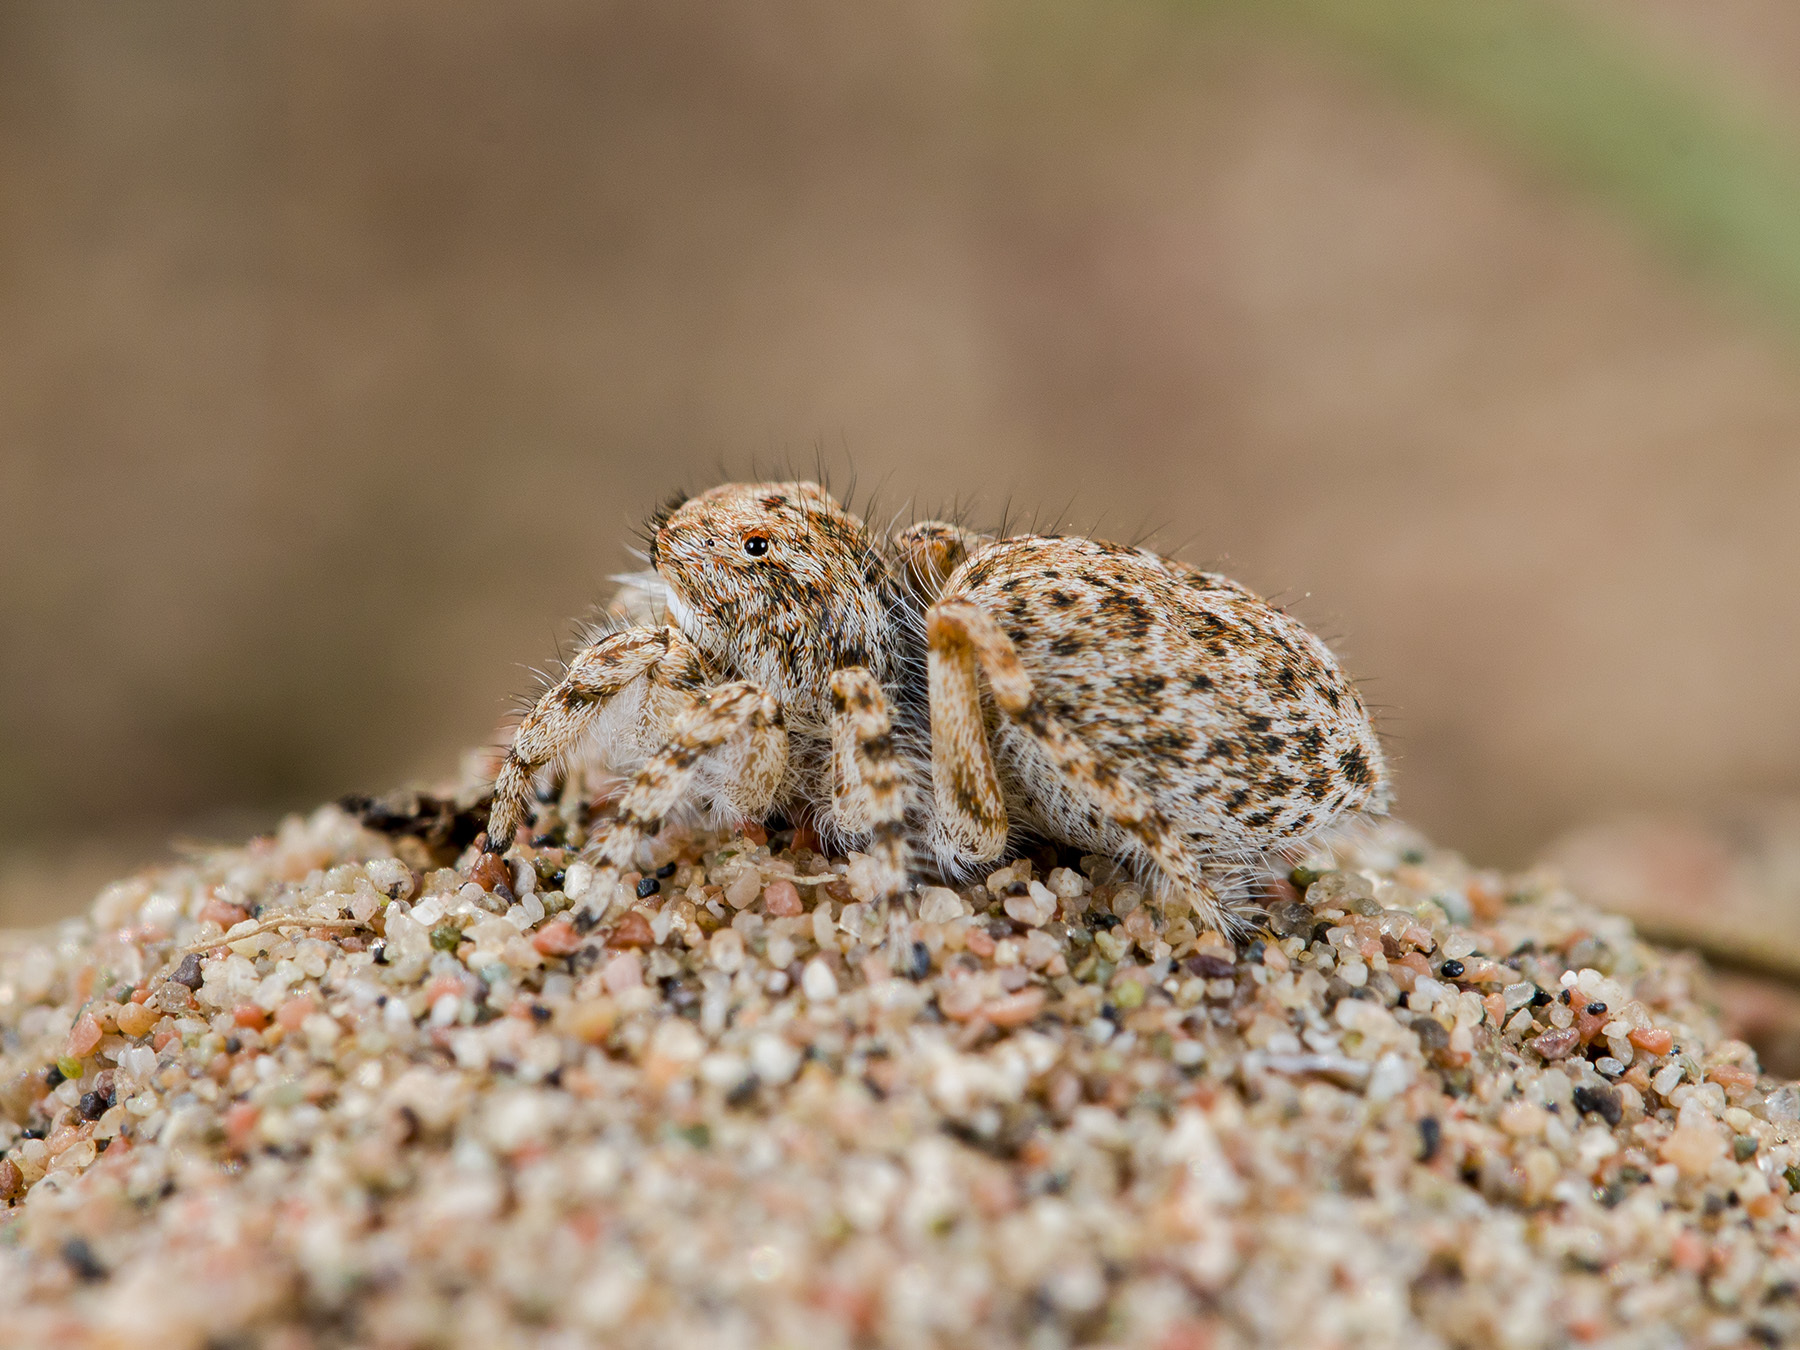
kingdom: Animalia
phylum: Arthropoda
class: Arachnida
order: Araneae
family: Salticidae
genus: Yllenus
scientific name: Yllenus uiguricus
